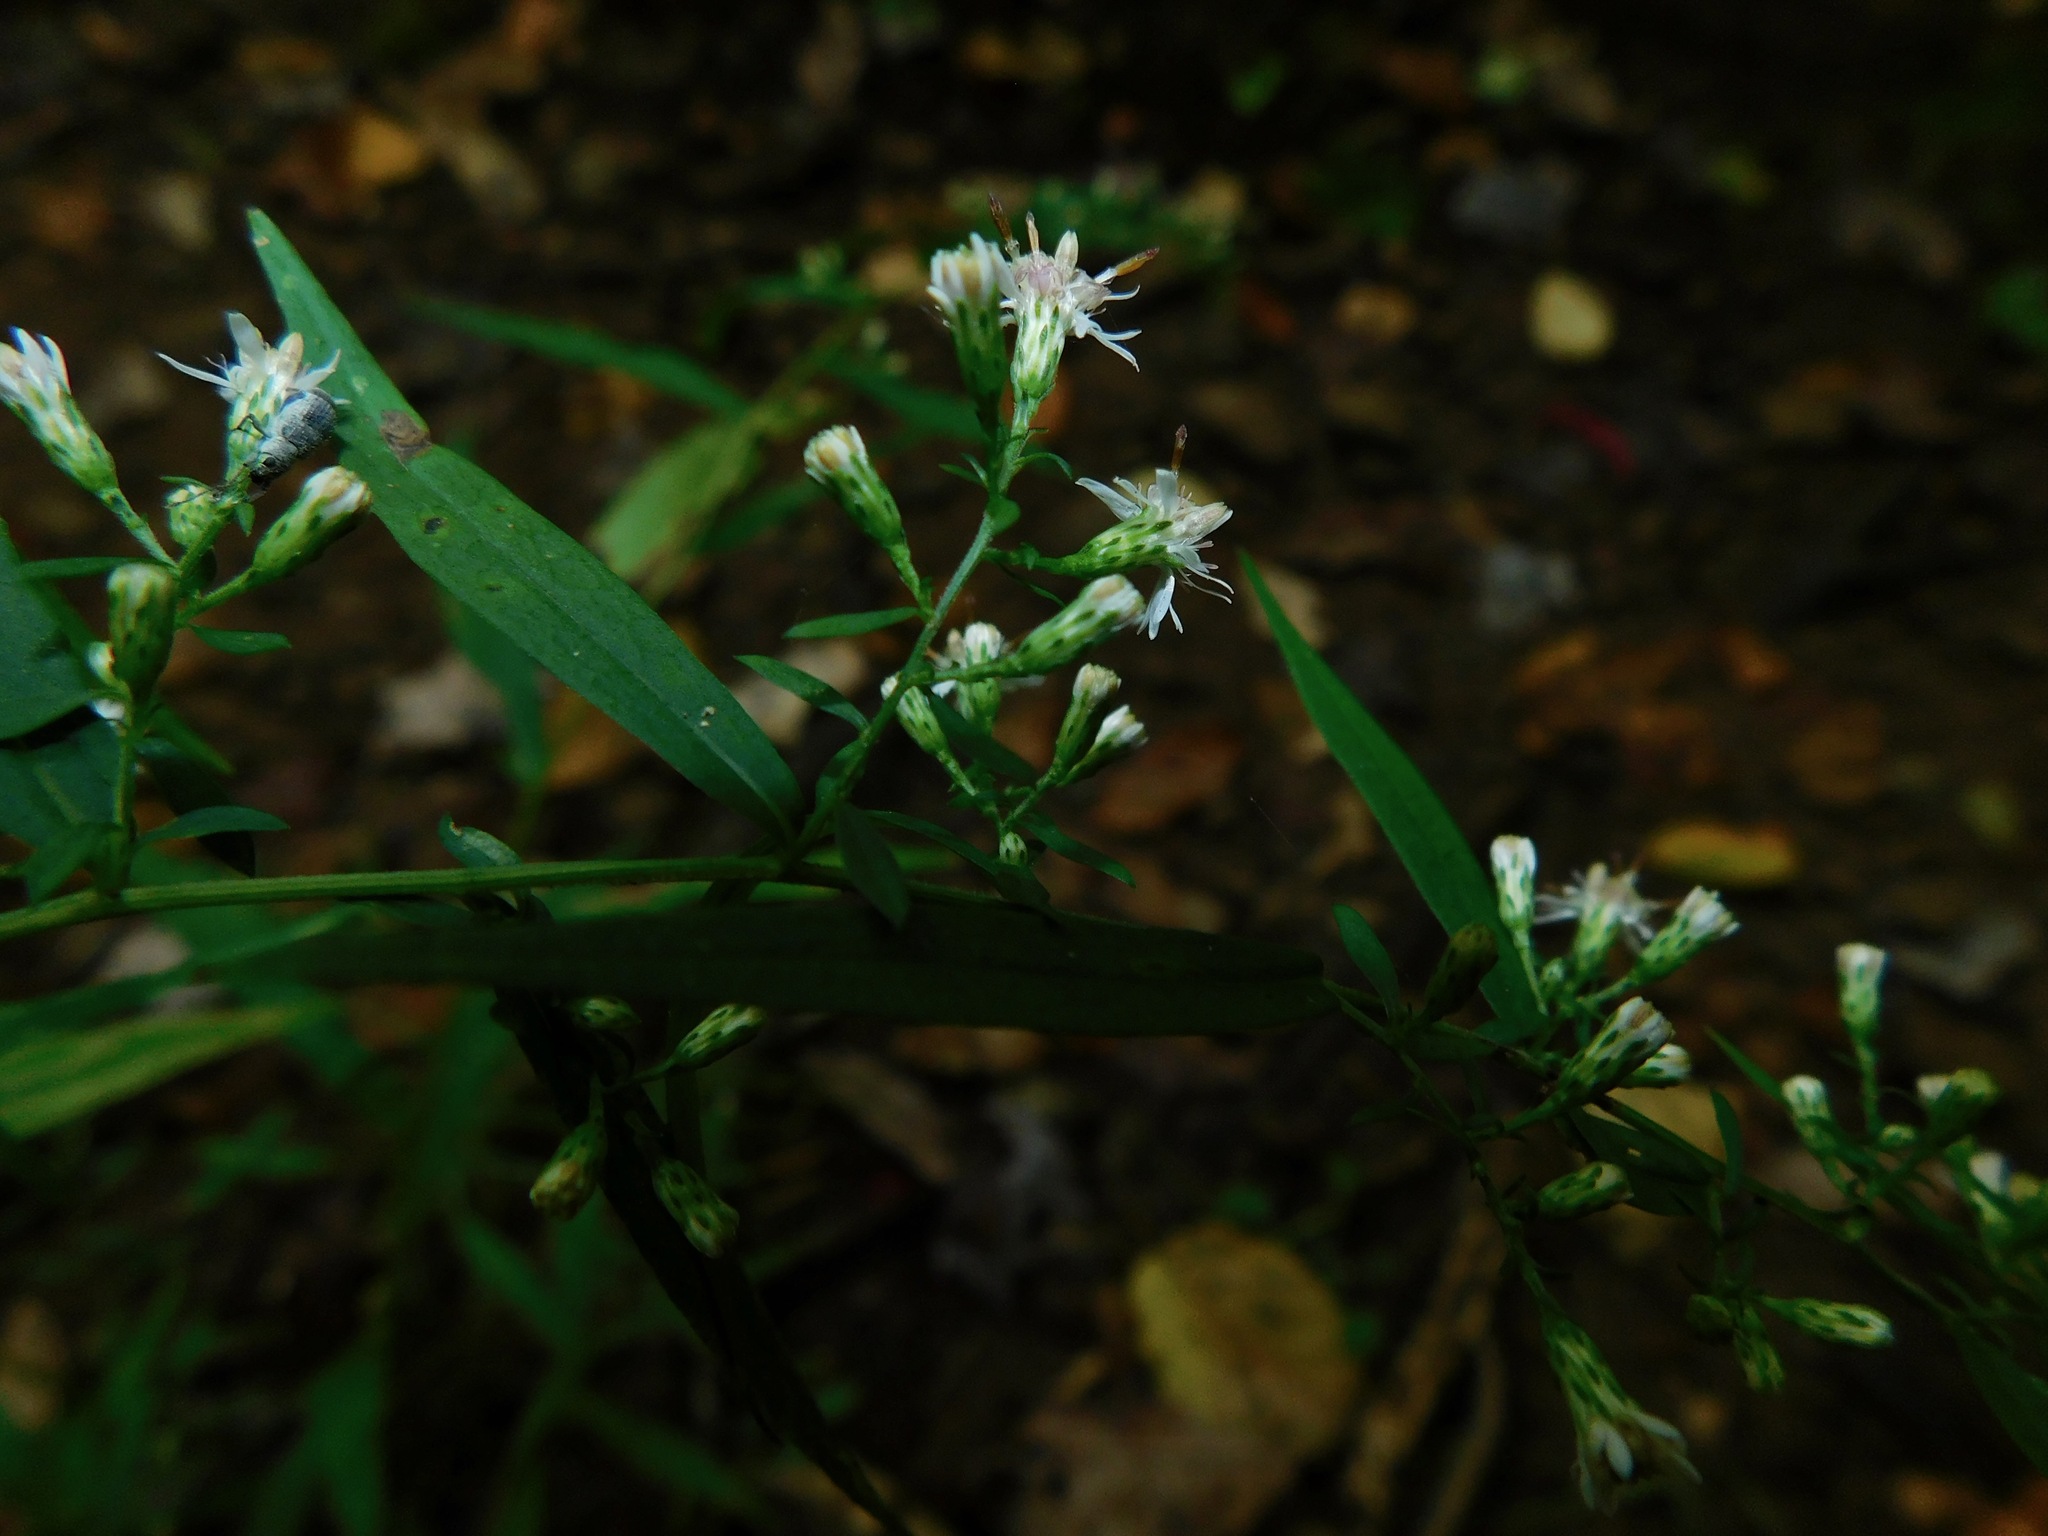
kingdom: Plantae
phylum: Tracheophyta
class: Magnoliopsida
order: Asterales
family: Asteraceae
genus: Symphyotrichum
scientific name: Symphyotrichum lateriflorum
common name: Calico aster
